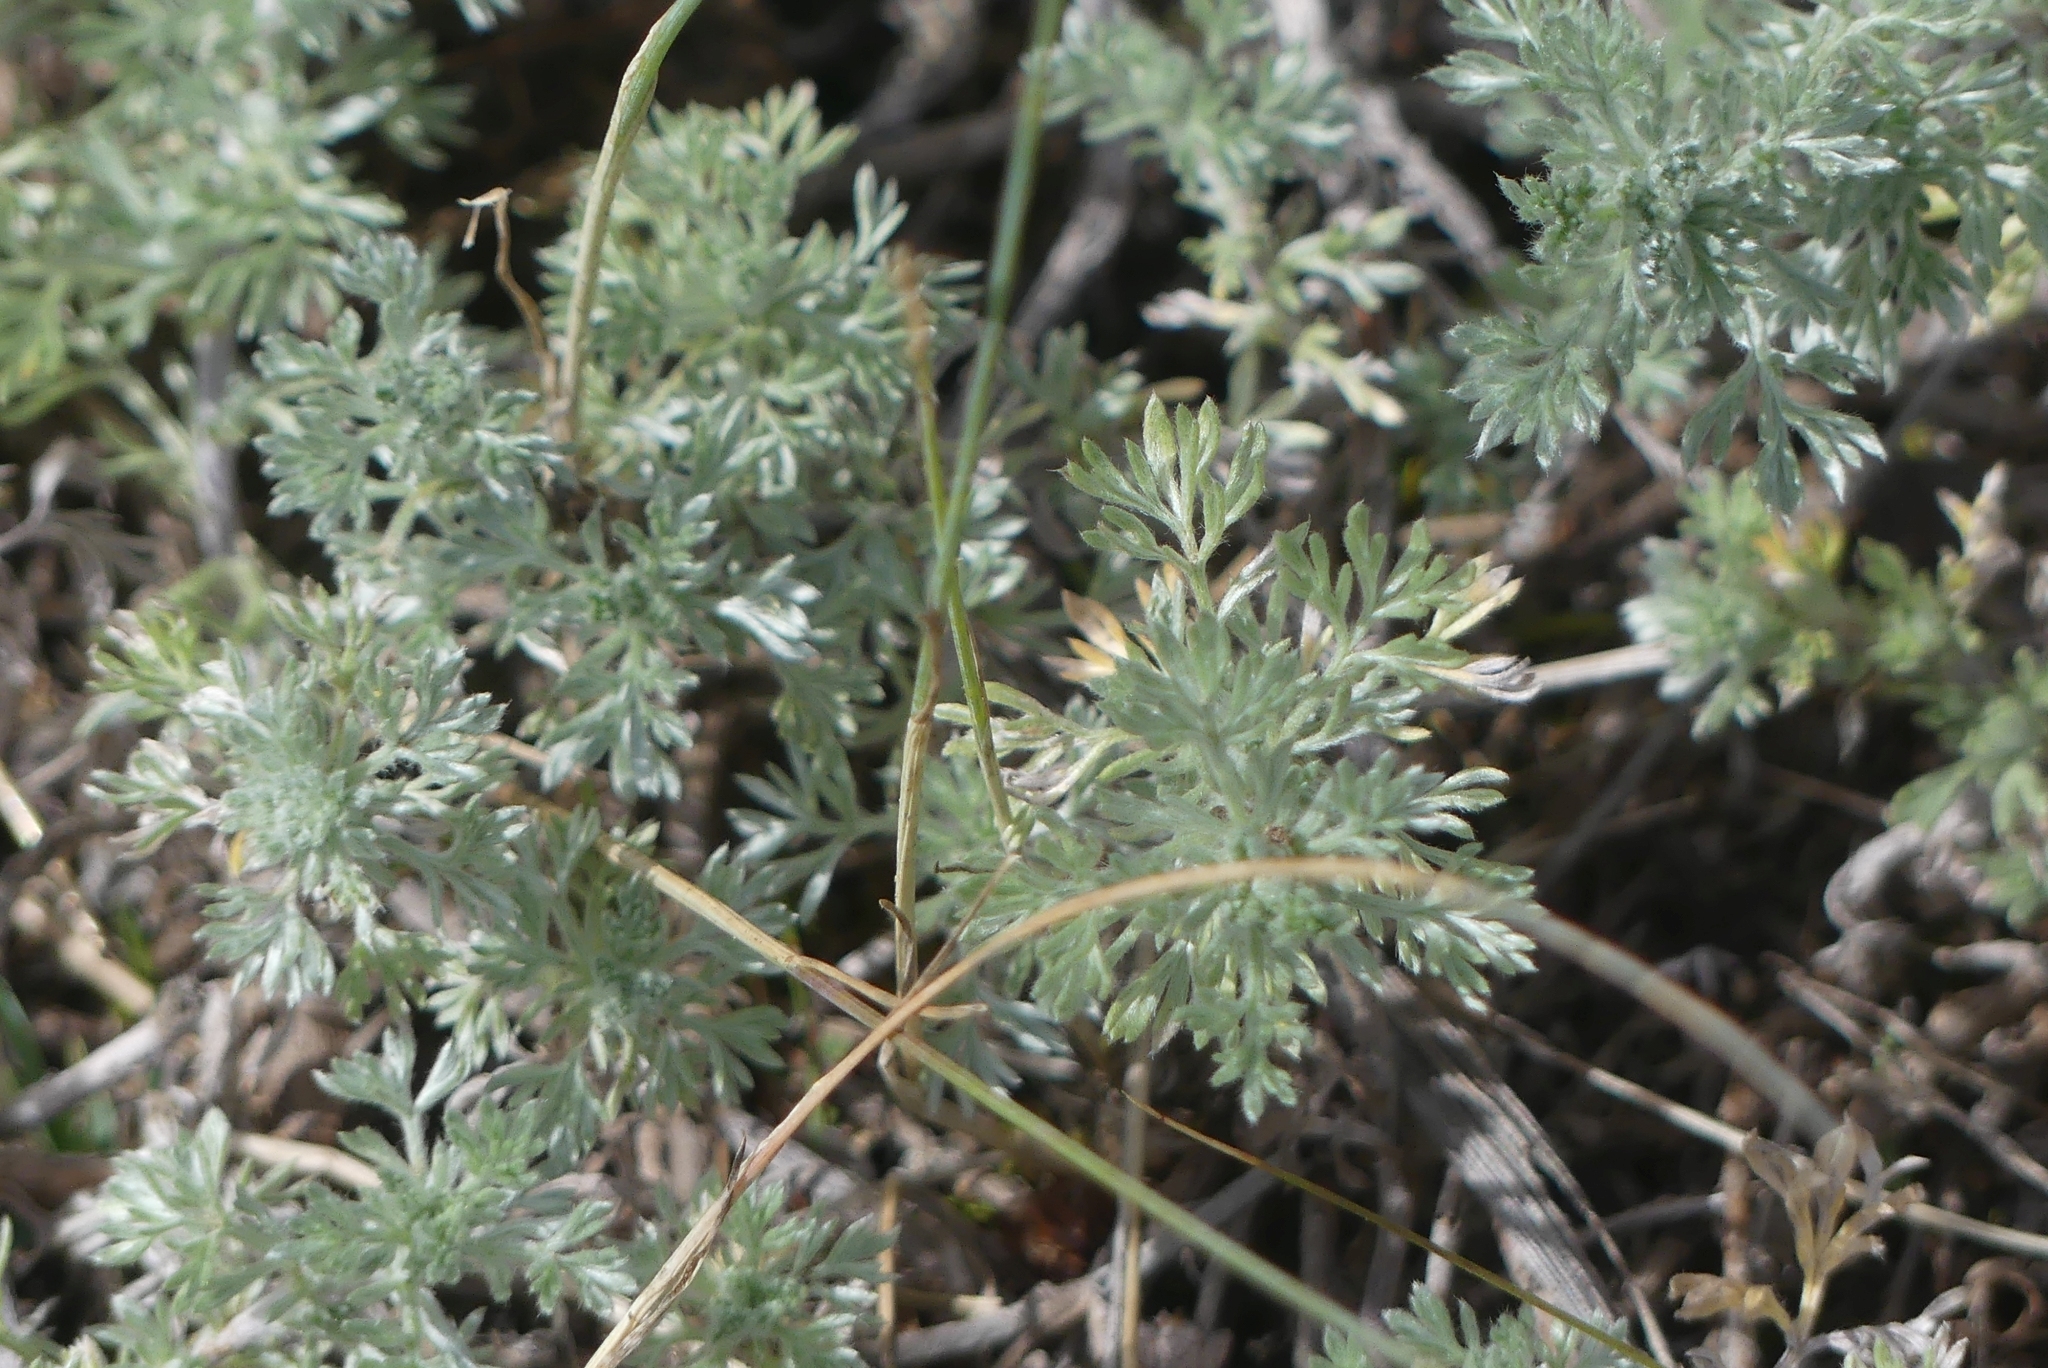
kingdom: Plantae
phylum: Tracheophyta
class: Magnoliopsida
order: Asterales
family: Asteraceae
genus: Artemisia
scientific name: Artemisia frigida
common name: Prairie sagewort
